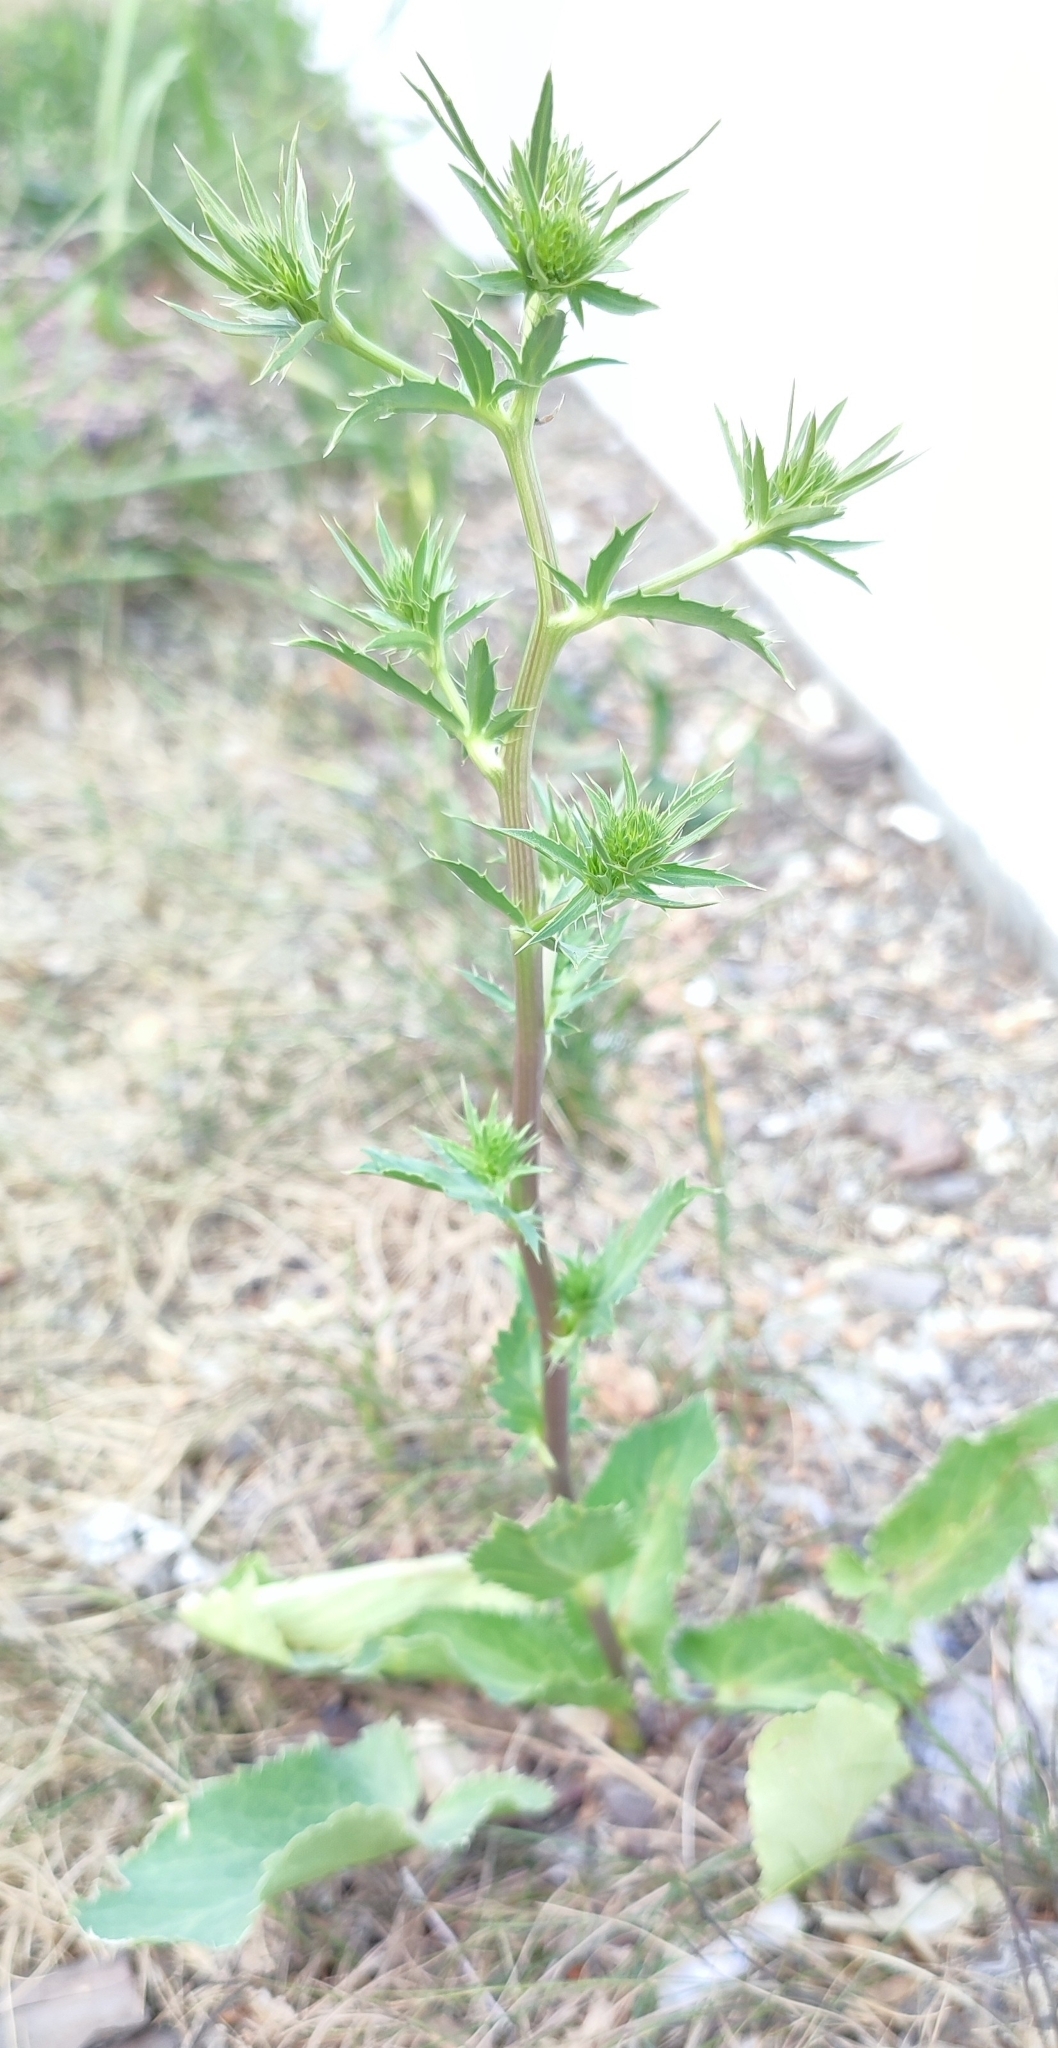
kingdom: Plantae
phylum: Tracheophyta
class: Magnoliopsida
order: Apiales
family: Apiaceae
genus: Eryngium
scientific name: Eryngium planum
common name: Blue eryngo
